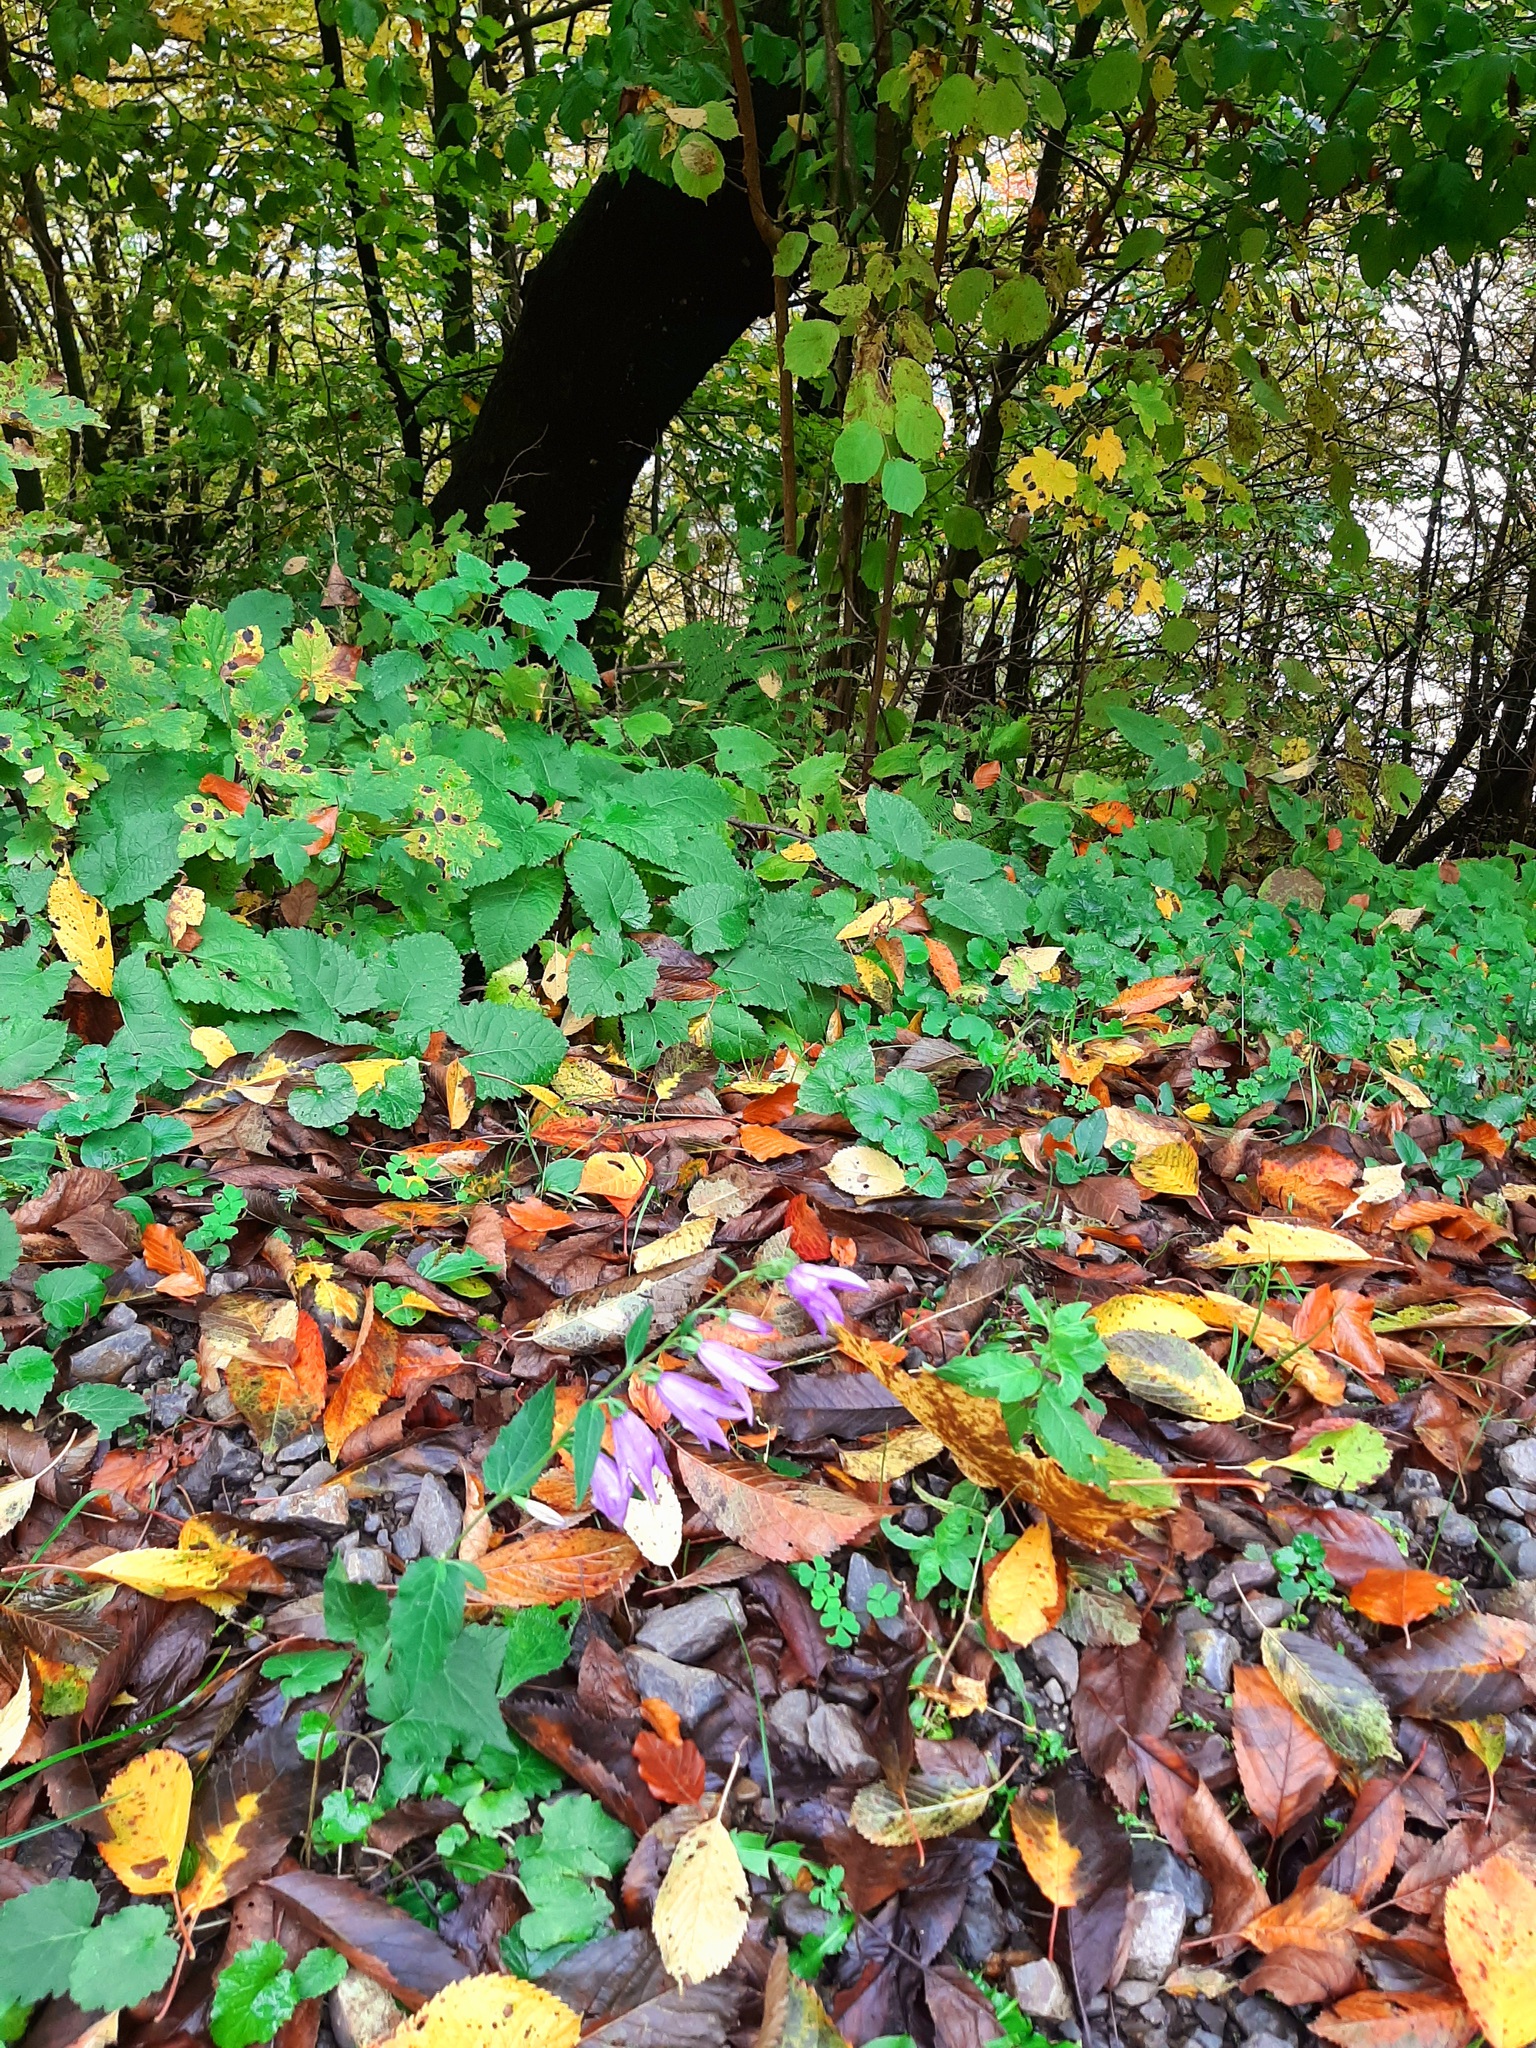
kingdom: Plantae
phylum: Tracheophyta
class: Magnoliopsida
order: Asterales
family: Campanulaceae
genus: Campanula
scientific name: Campanula rapunculoides
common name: Creeping bellflower
